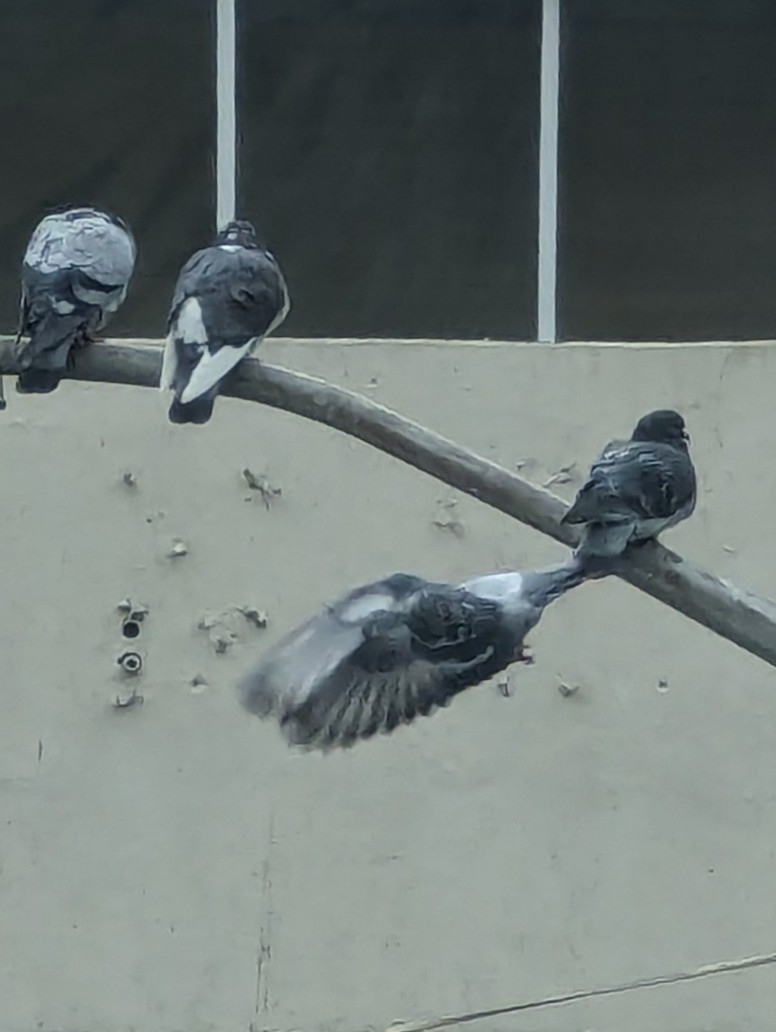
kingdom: Animalia
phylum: Chordata
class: Aves
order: Columbiformes
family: Columbidae
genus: Columba
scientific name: Columba livia
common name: Rock pigeon
